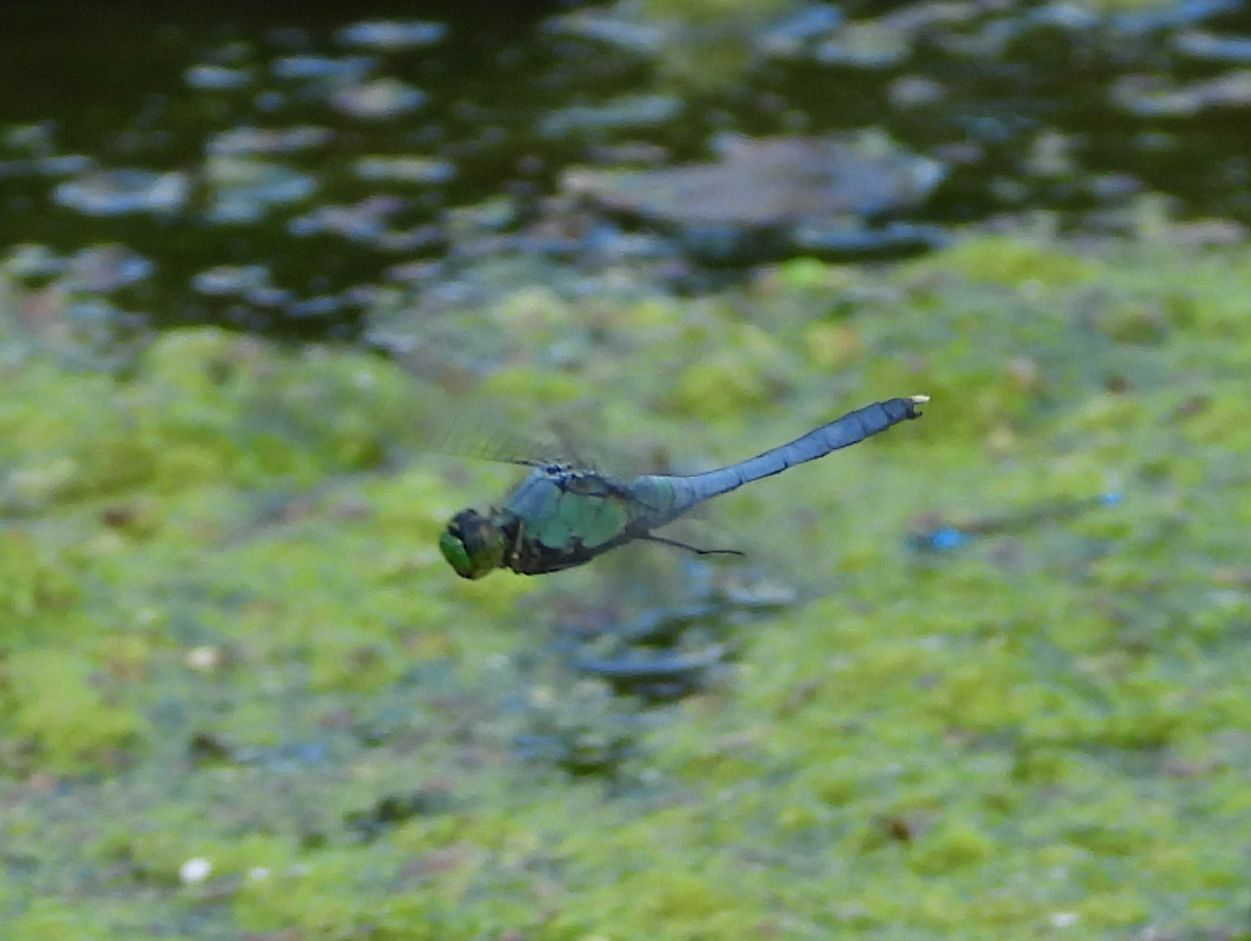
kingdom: Animalia
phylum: Arthropoda
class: Insecta
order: Odonata
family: Libellulidae
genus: Erythemis
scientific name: Erythemis simplicicollis
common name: Eastern pondhawk
